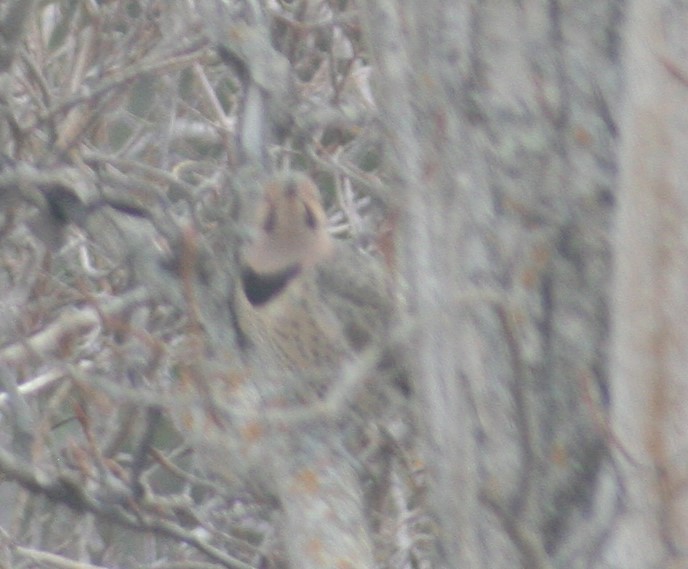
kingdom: Animalia
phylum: Chordata
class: Aves
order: Piciformes
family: Picidae
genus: Colaptes
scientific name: Colaptes auratus
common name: Northern flicker
